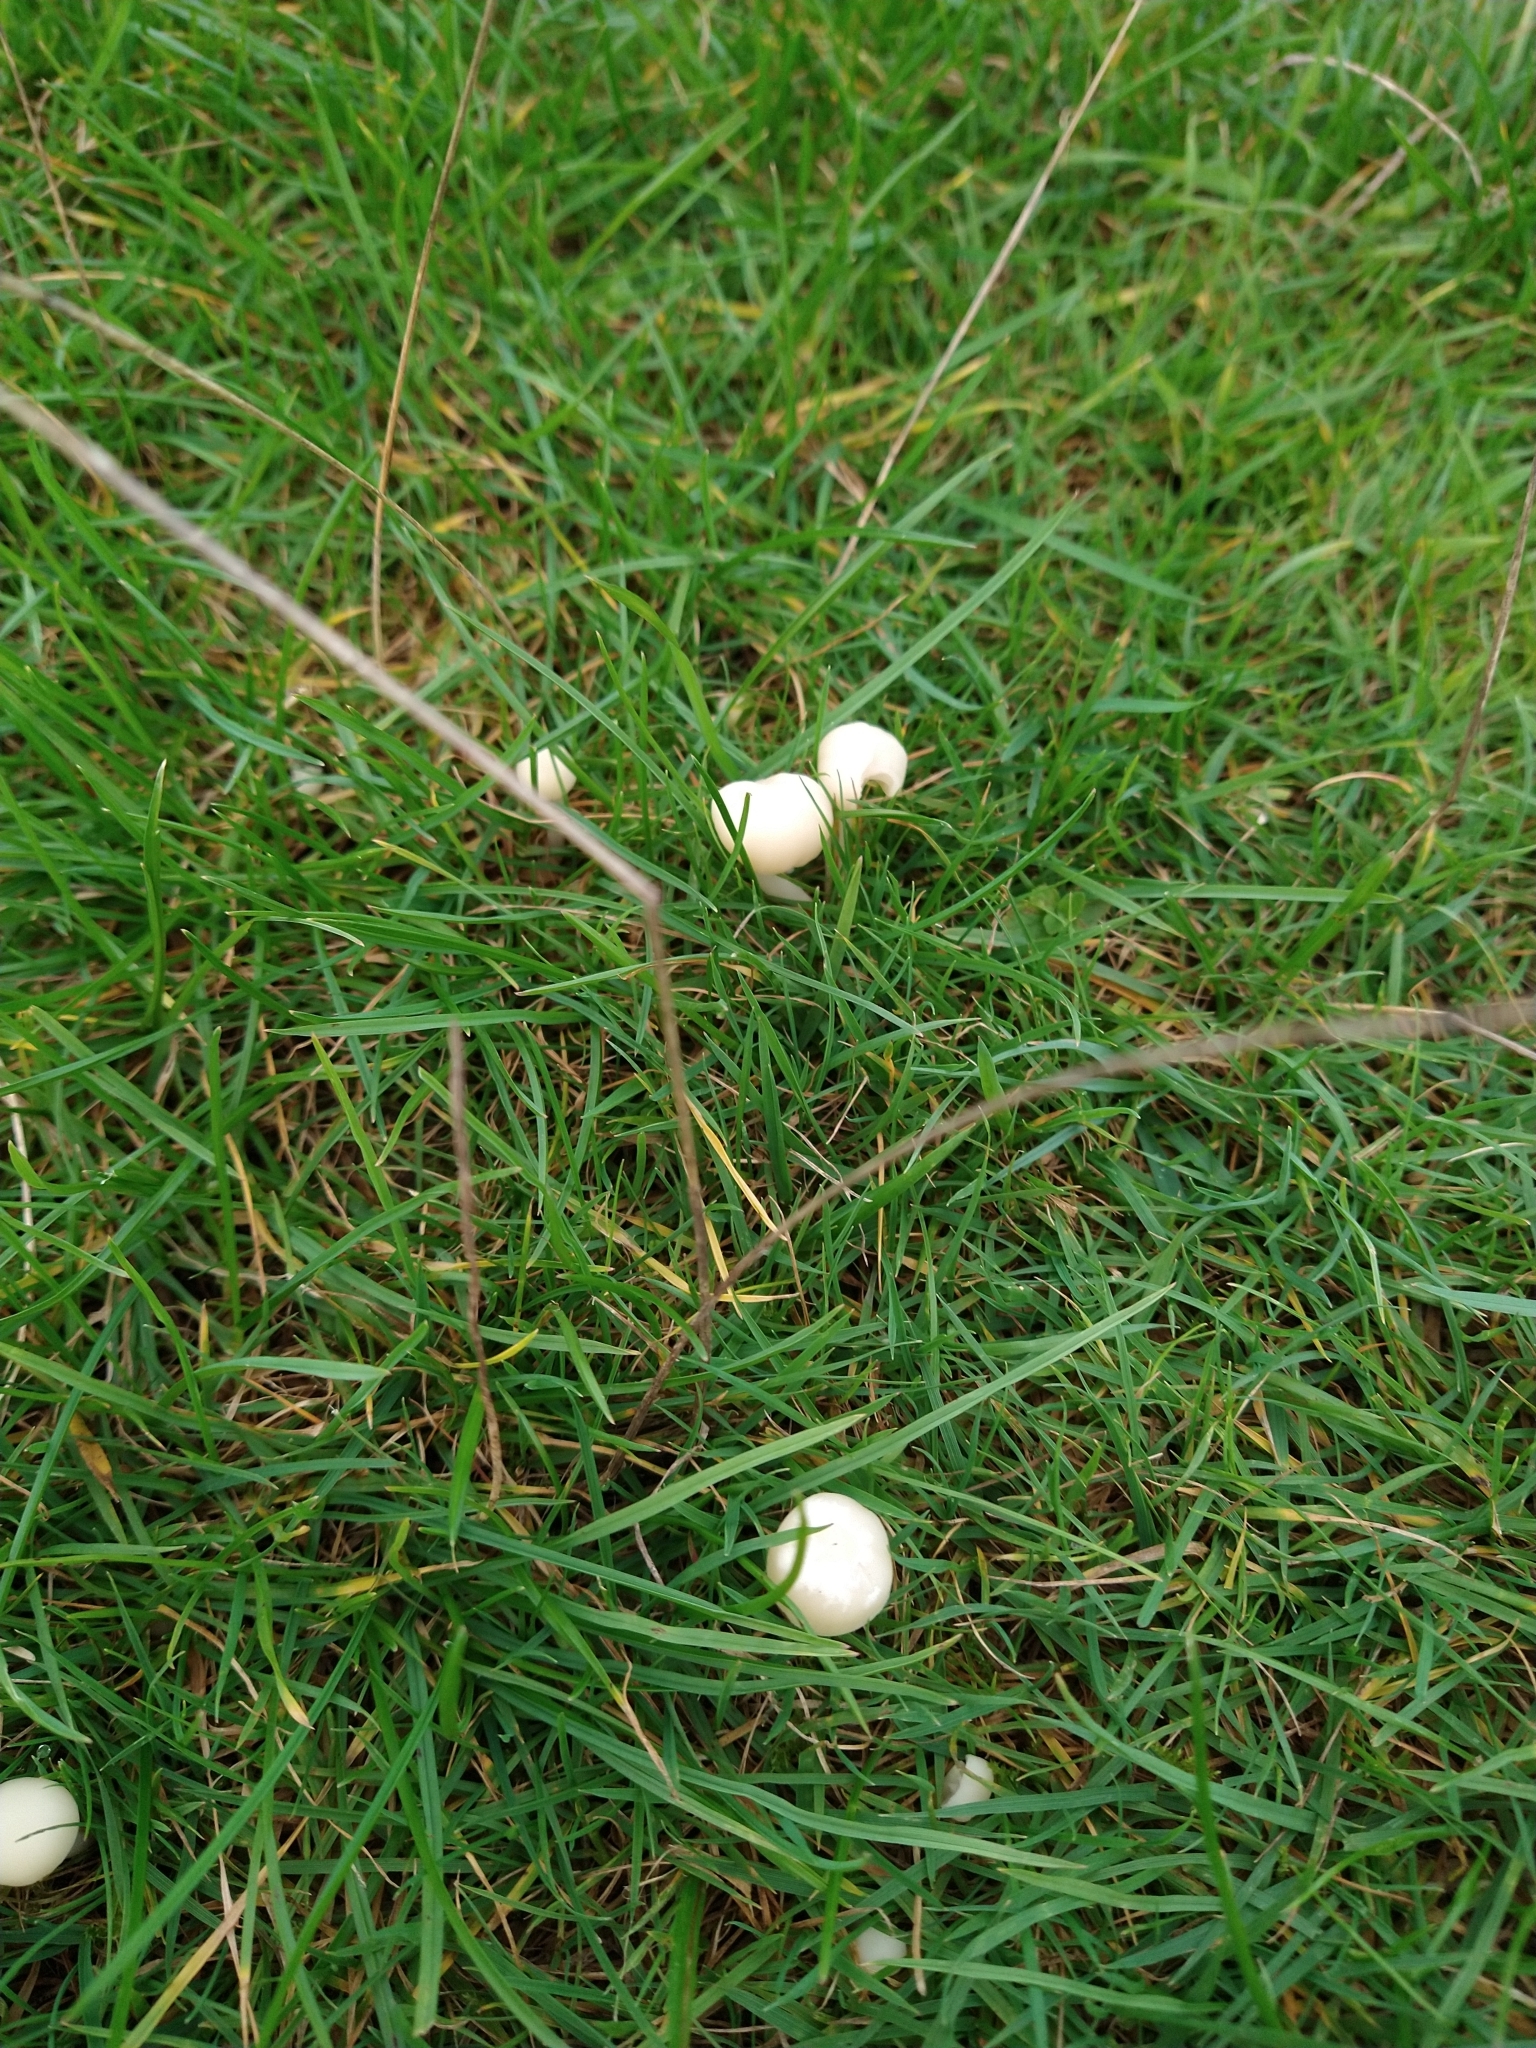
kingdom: Fungi
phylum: Basidiomycota
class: Agaricomycetes
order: Agaricales
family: Hygrophoraceae
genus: Cuphophyllus
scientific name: Cuphophyllus virgineus
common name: Snowy waxcap
